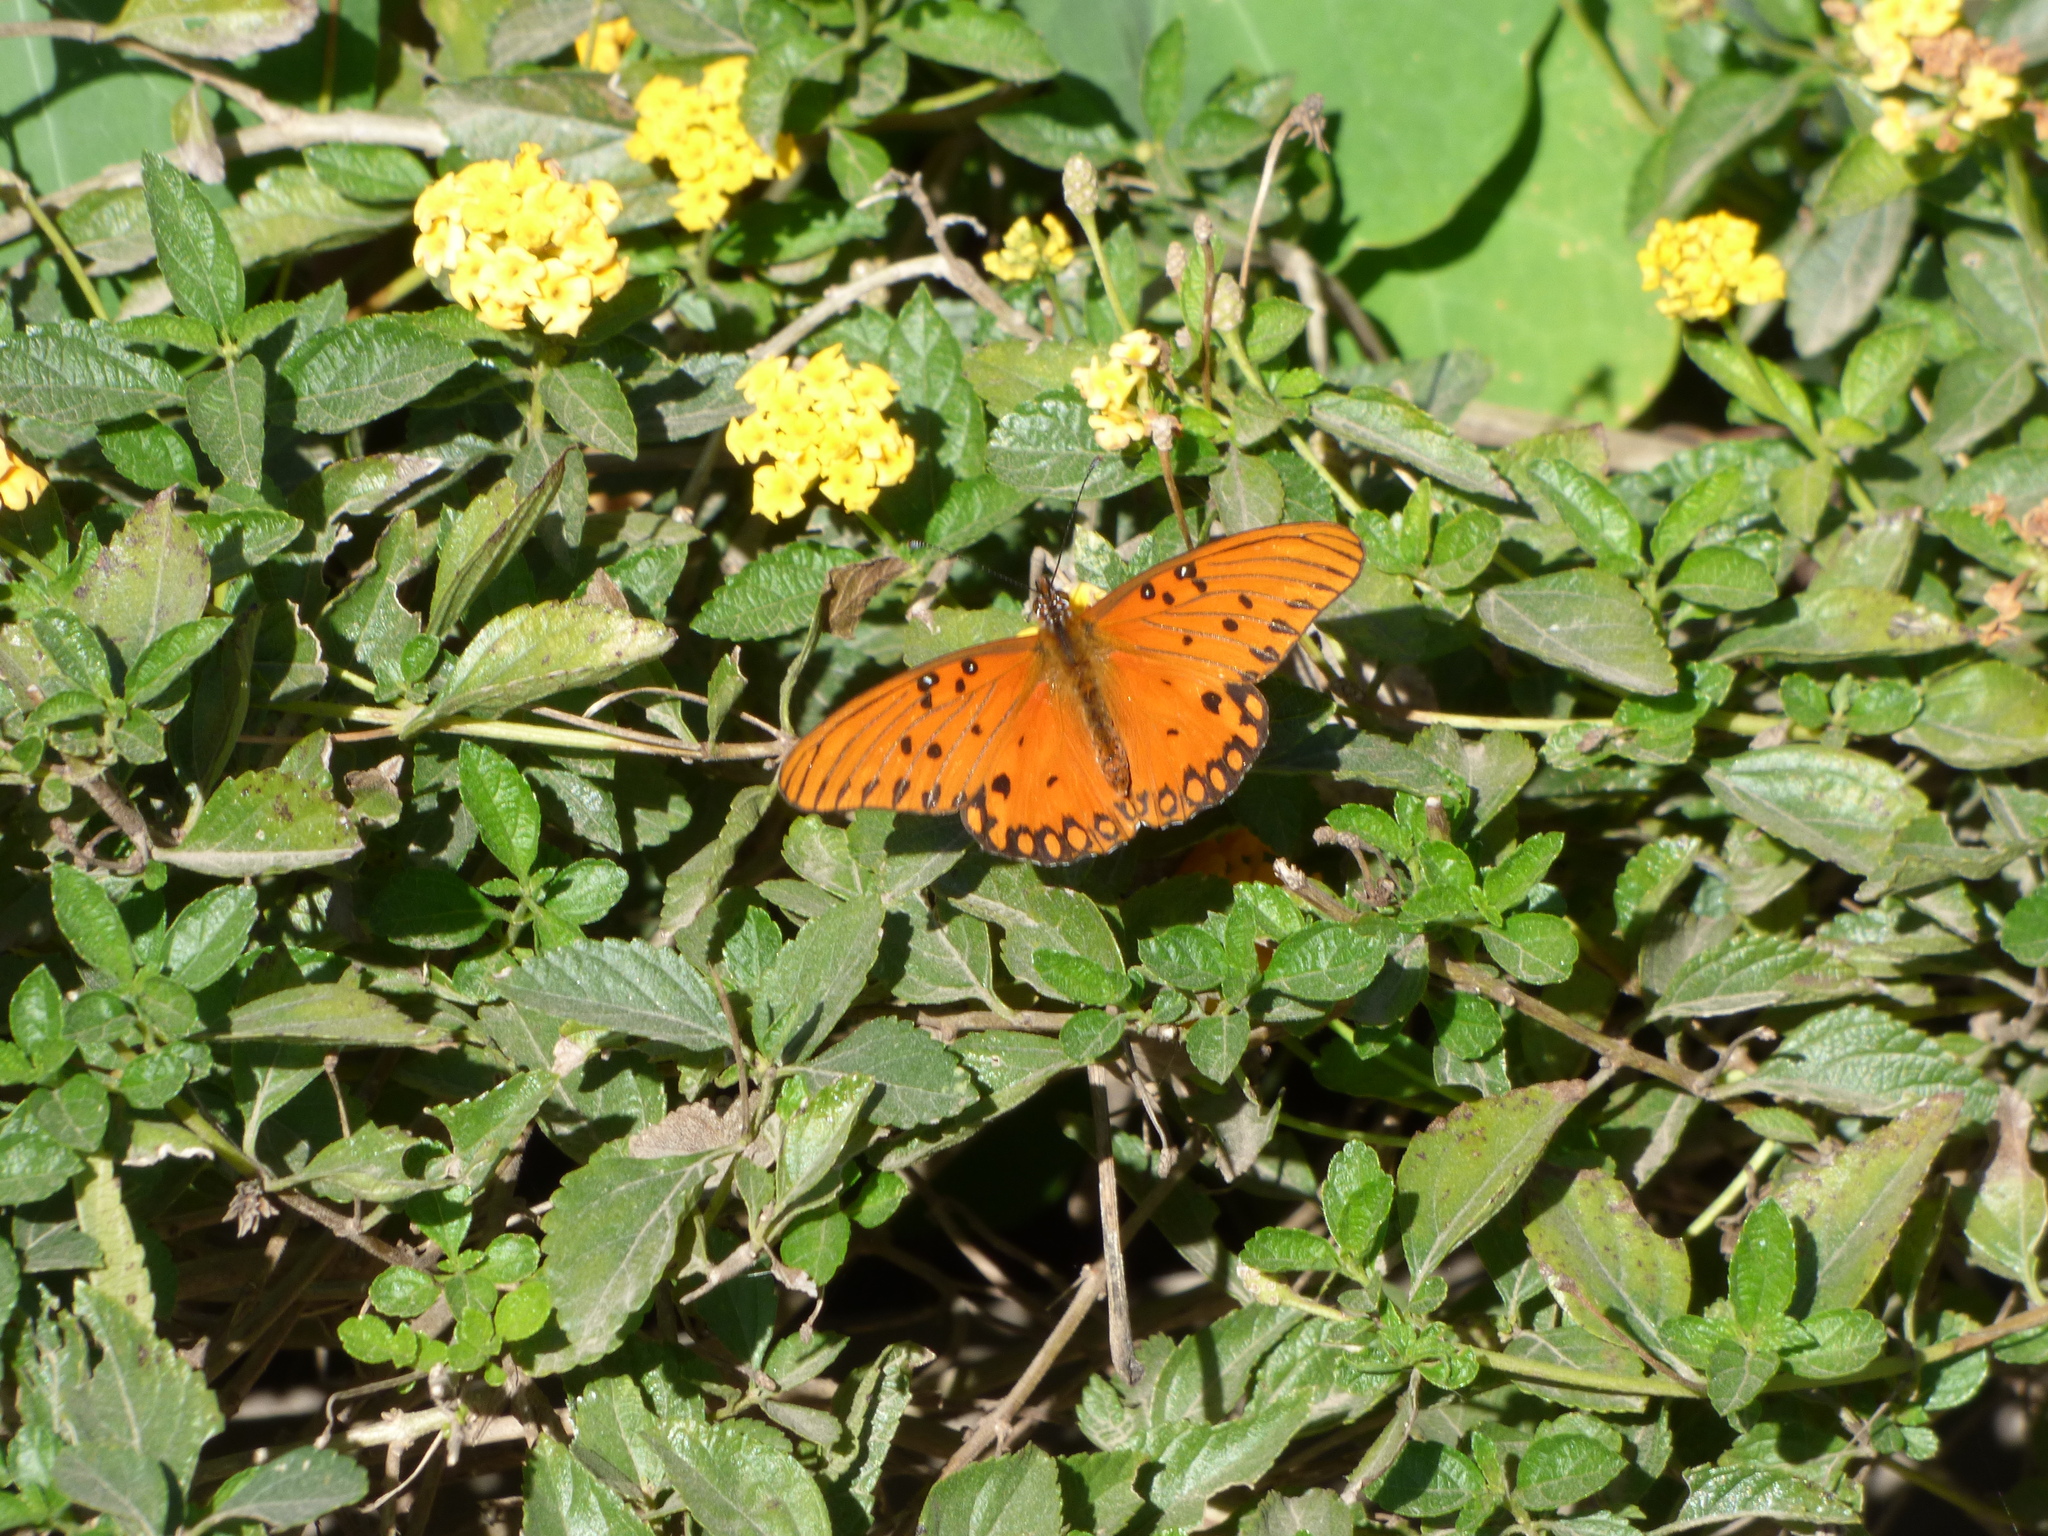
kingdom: Animalia
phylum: Arthropoda
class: Insecta
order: Lepidoptera
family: Nymphalidae
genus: Dione
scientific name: Dione vanillae
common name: Gulf fritillary
